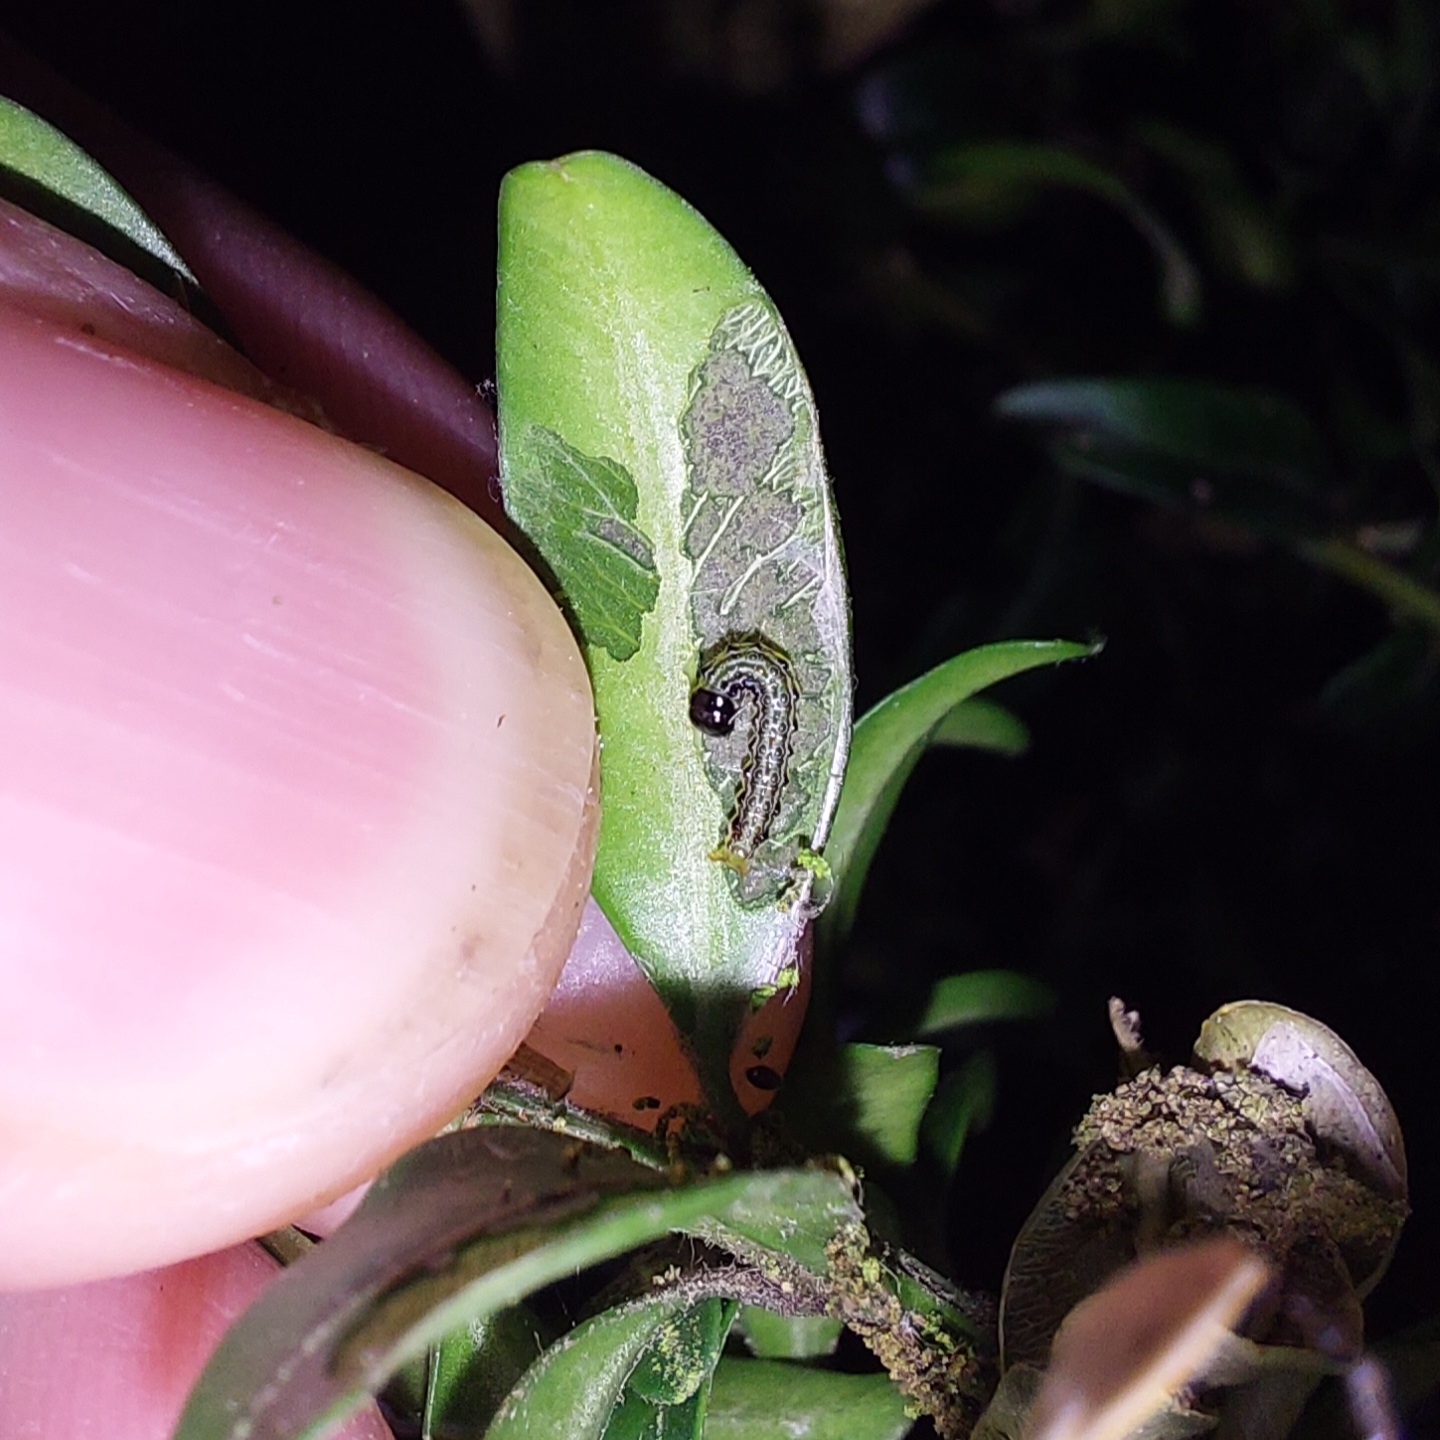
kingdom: Animalia
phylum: Arthropoda
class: Insecta
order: Lepidoptera
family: Crambidae
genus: Cydalima
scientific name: Cydalima perspectalis
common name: Box tree moth
